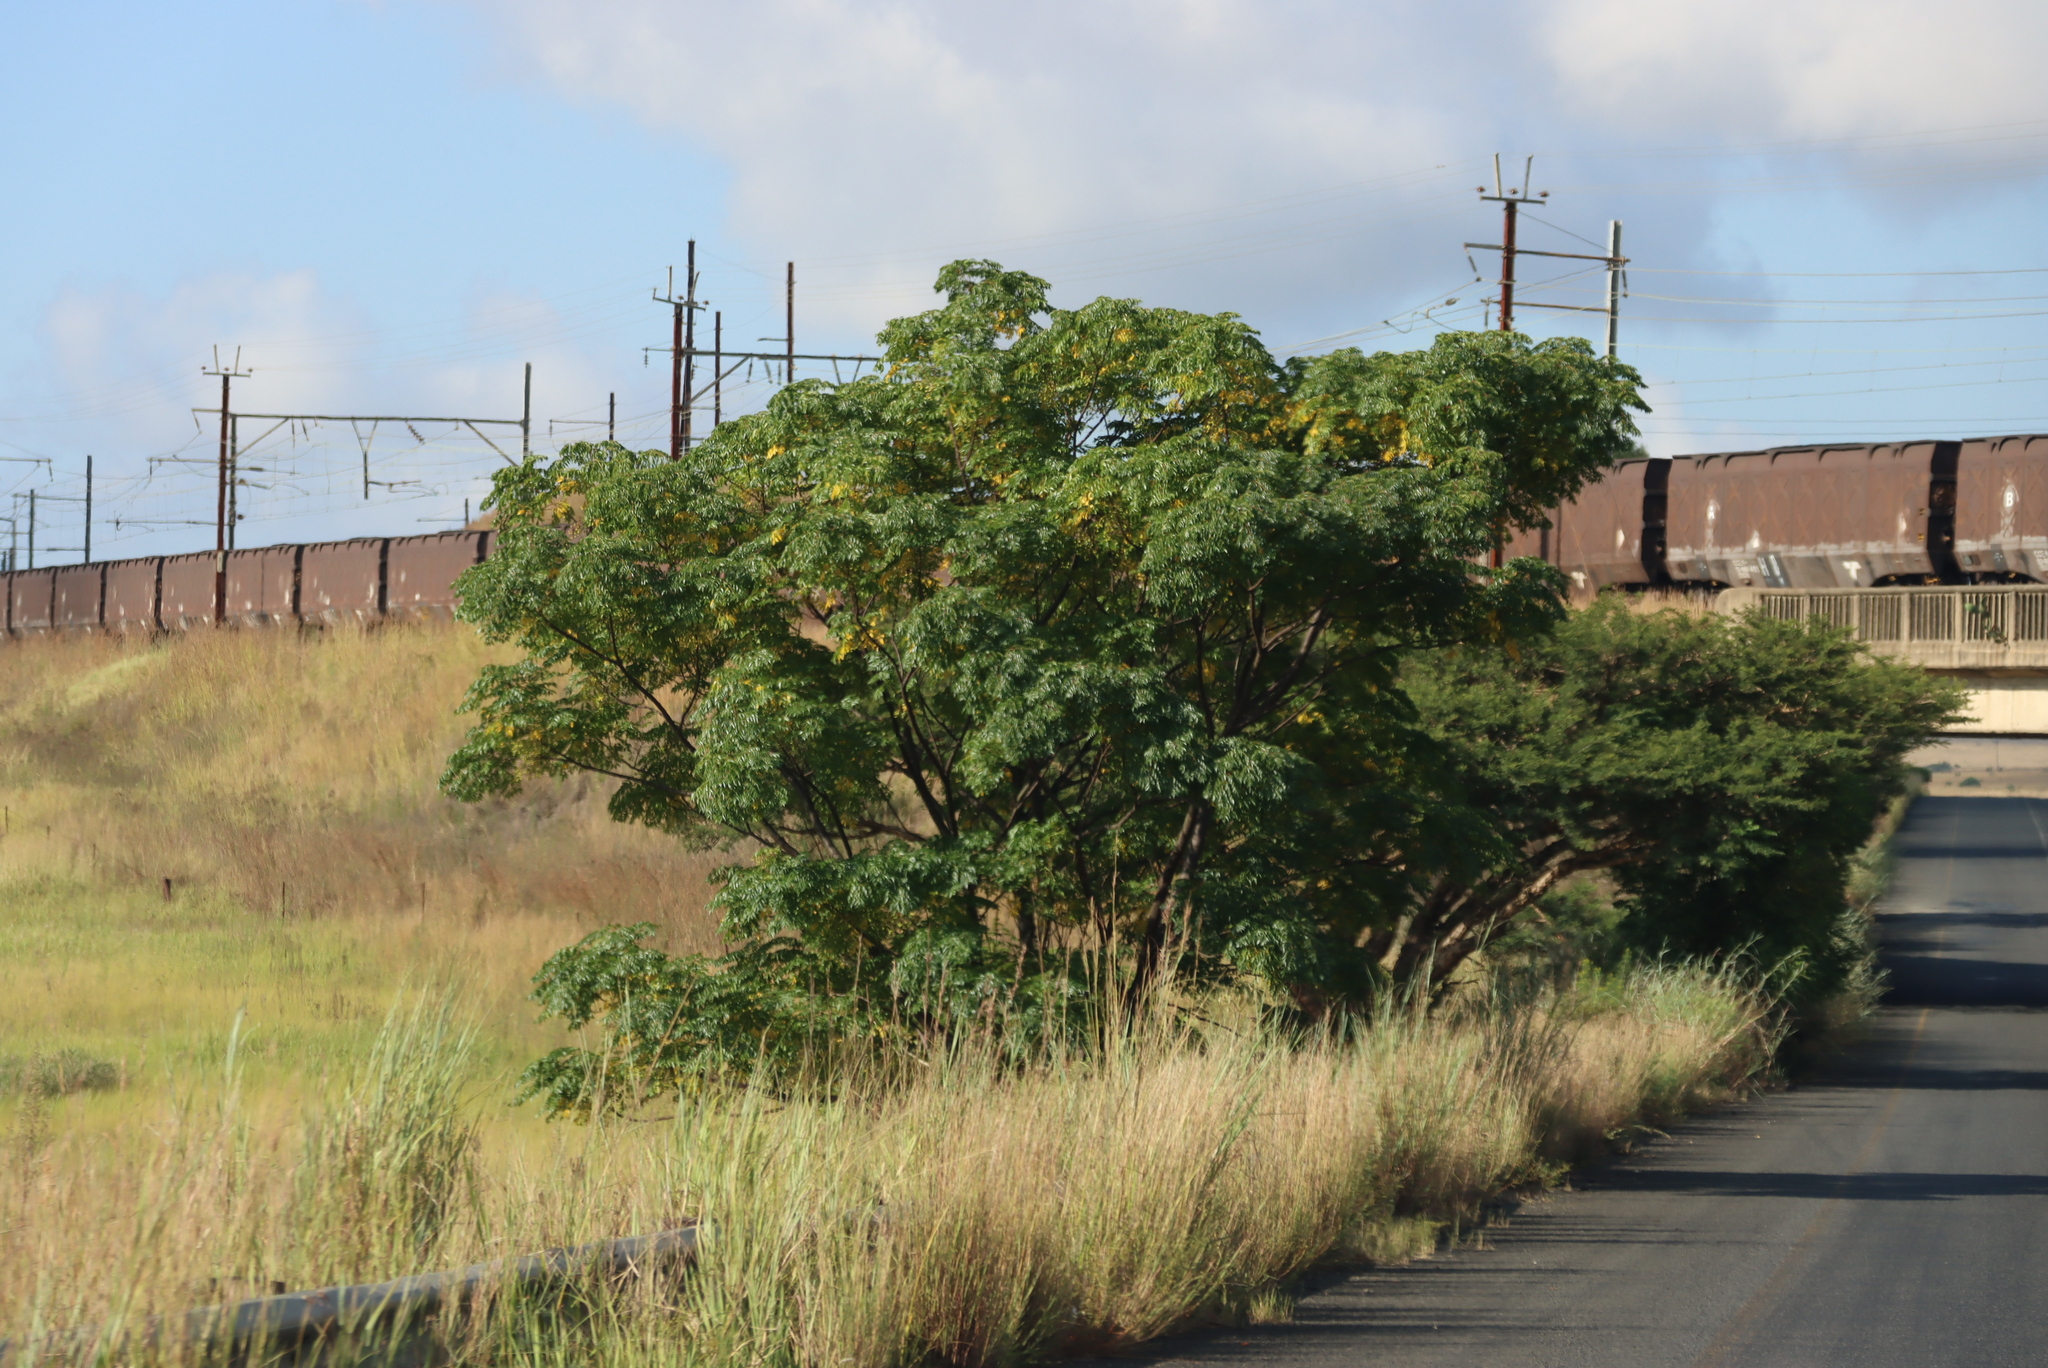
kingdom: Plantae
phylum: Tracheophyta
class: Magnoliopsida
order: Sapindales
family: Meliaceae
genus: Melia
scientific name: Melia azedarach
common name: Chinaberrytree
